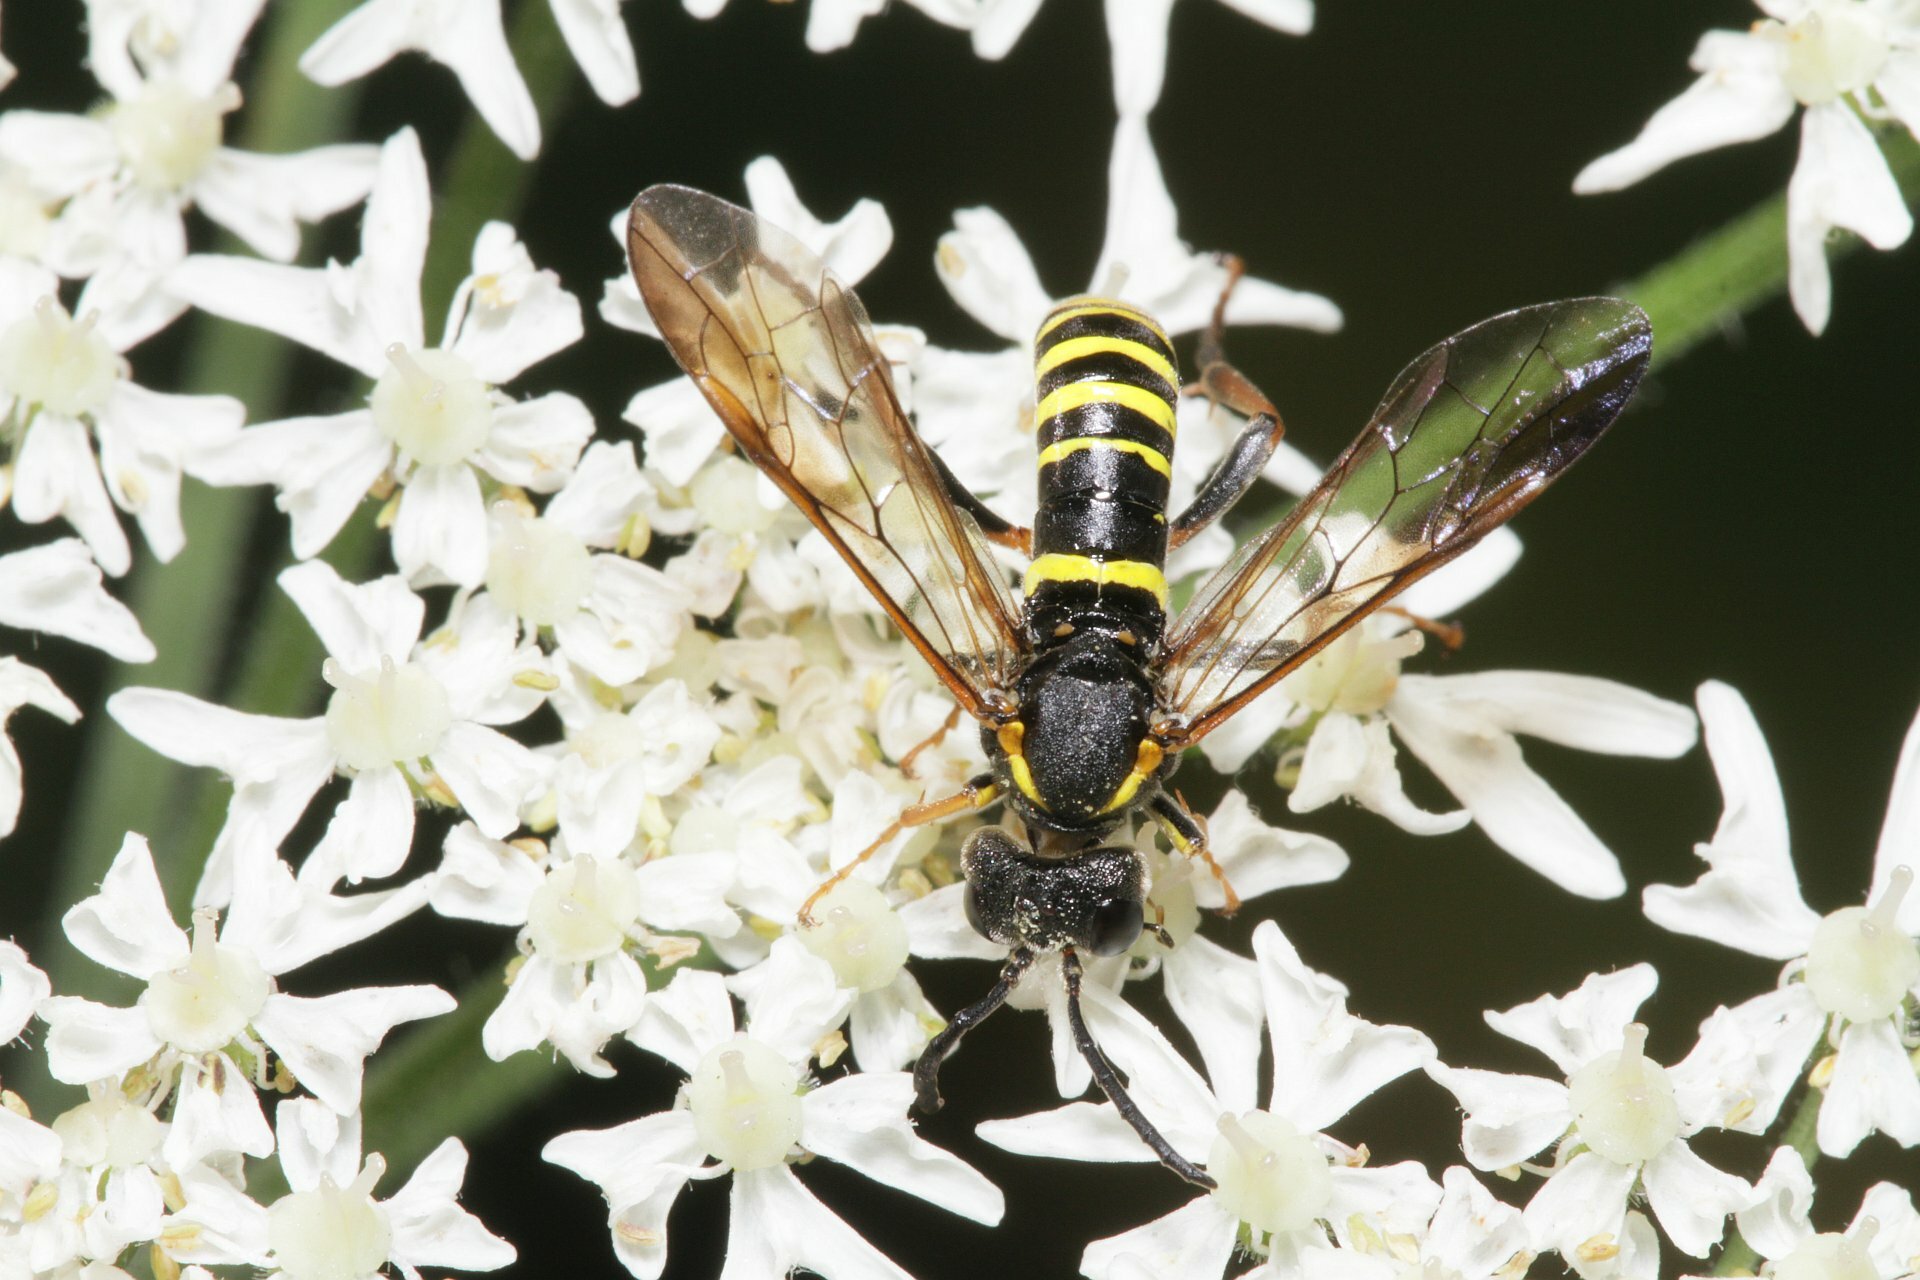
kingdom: Animalia
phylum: Arthropoda
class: Insecta
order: Hymenoptera
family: Tenthredinidae
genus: Tenthredo
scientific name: Tenthredo vespa
